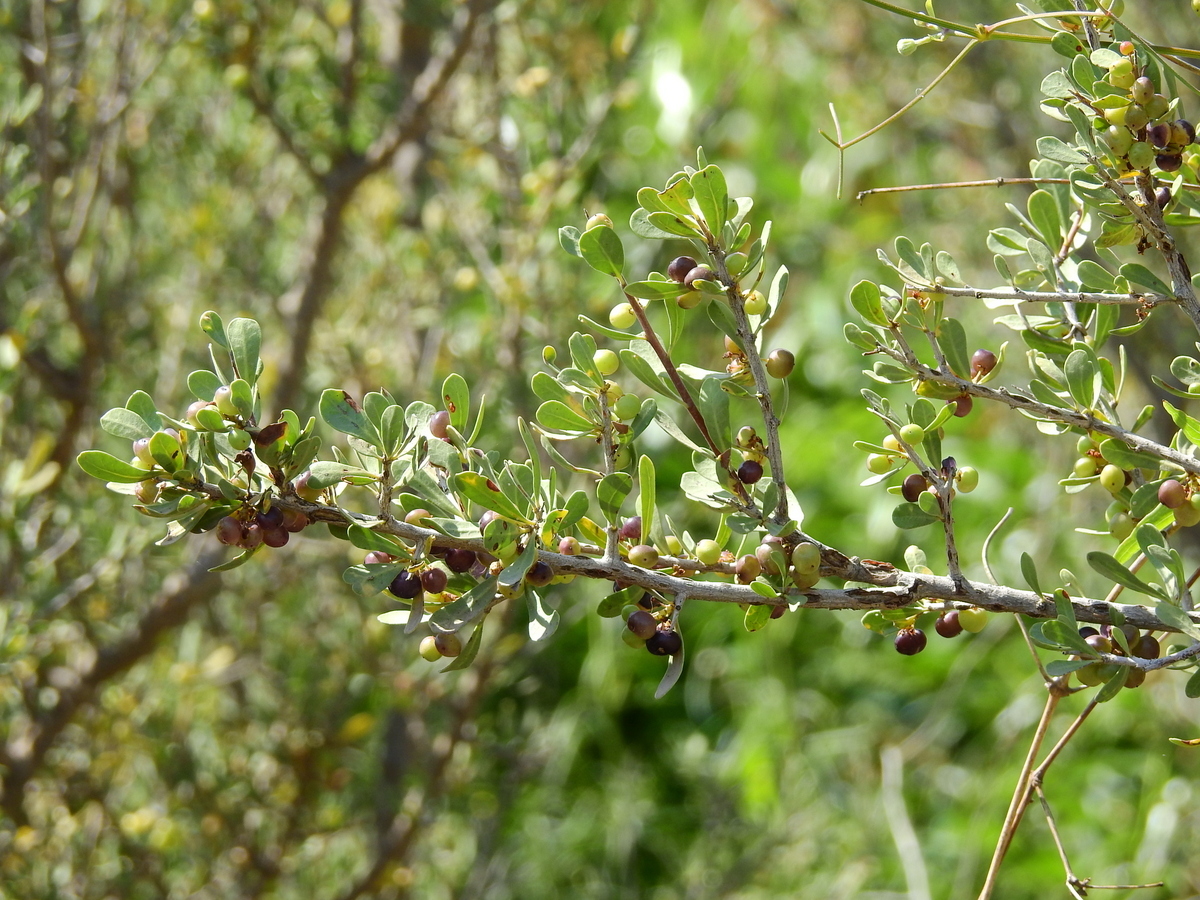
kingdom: Plantae
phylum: Tracheophyta
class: Magnoliopsida
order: Sapindales
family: Anacardiaceae
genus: Schinus
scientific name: Schinus johnstonii
